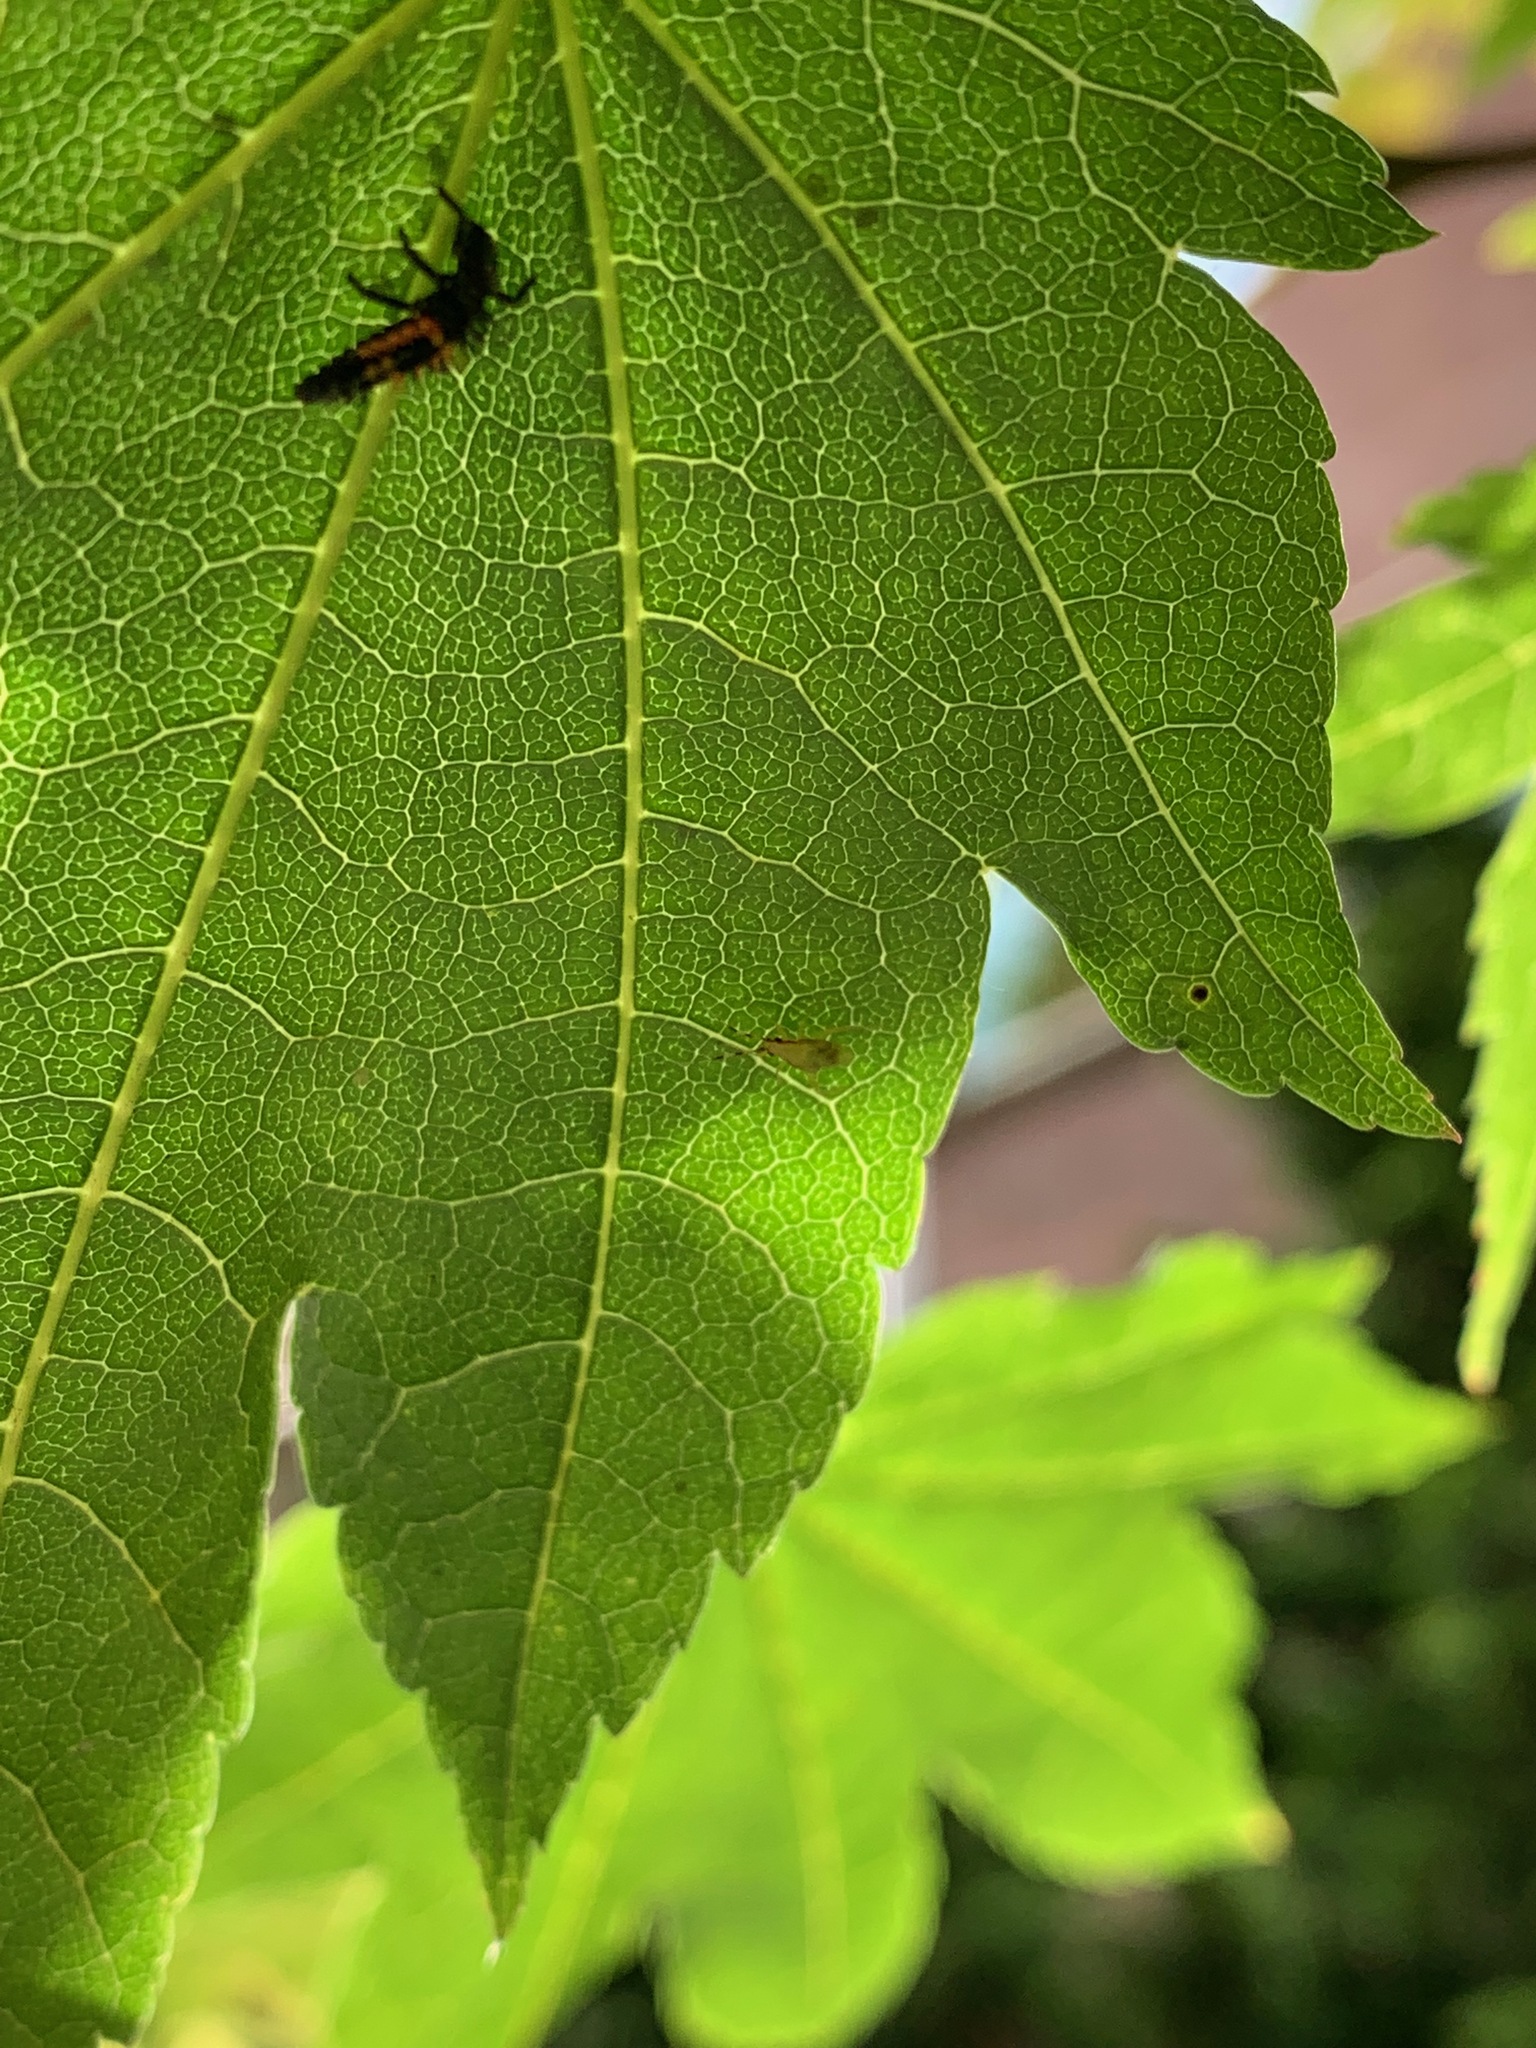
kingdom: Animalia
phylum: Arthropoda
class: Insecta
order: Coleoptera
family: Coccinellidae
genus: Harmonia
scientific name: Harmonia axyridis
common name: Harlequin ladybird
